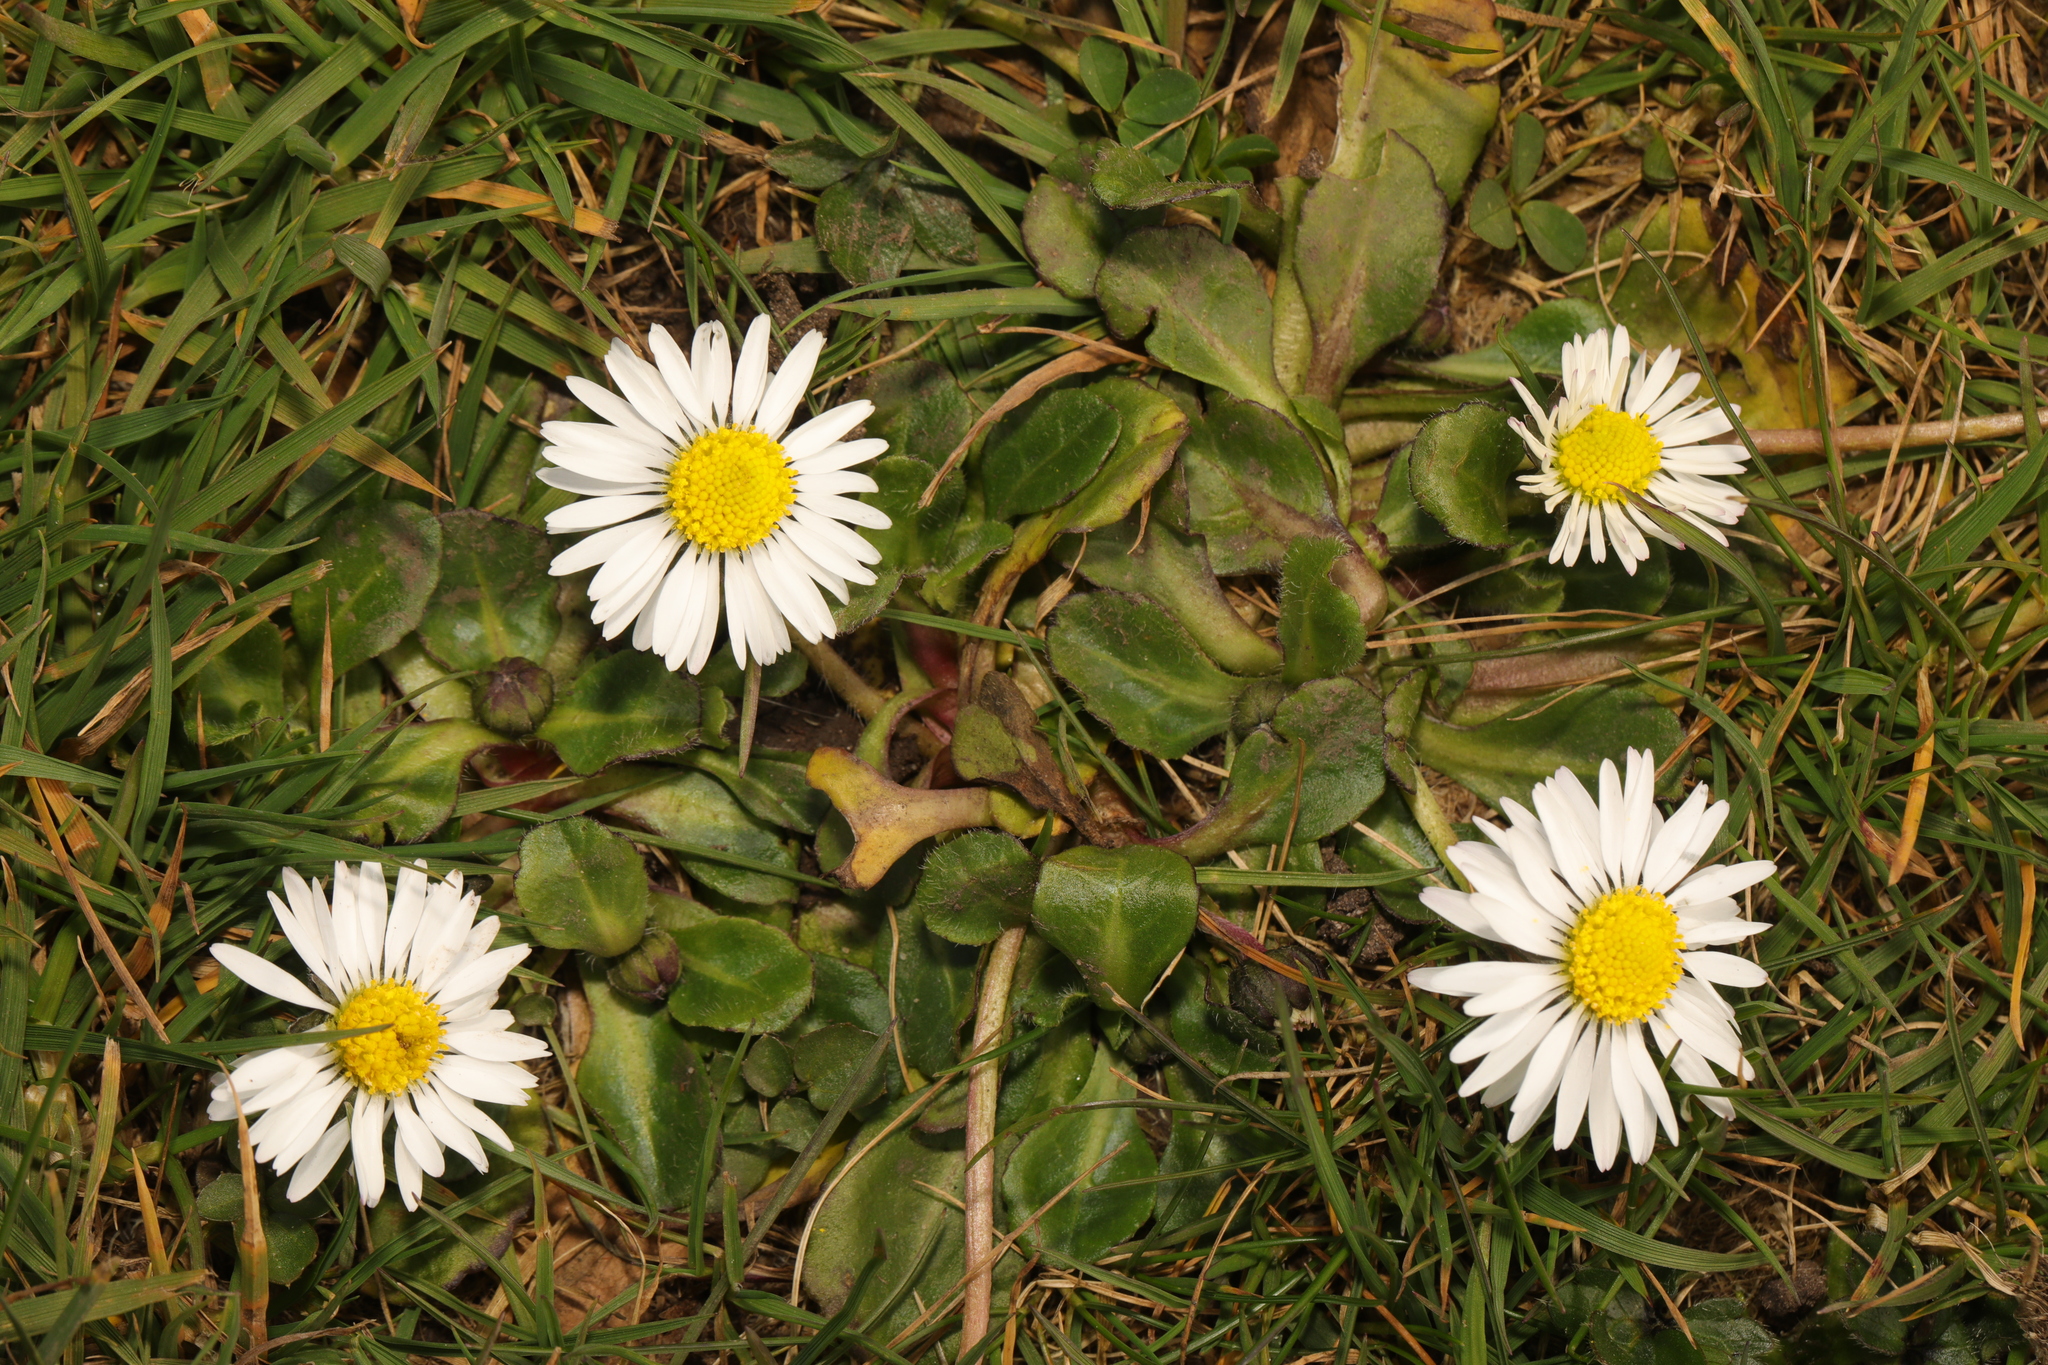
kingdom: Plantae
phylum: Tracheophyta
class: Magnoliopsida
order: Asterales
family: Asteraceae
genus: Bellis
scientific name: Bellis perennis
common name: Lawndaisy
